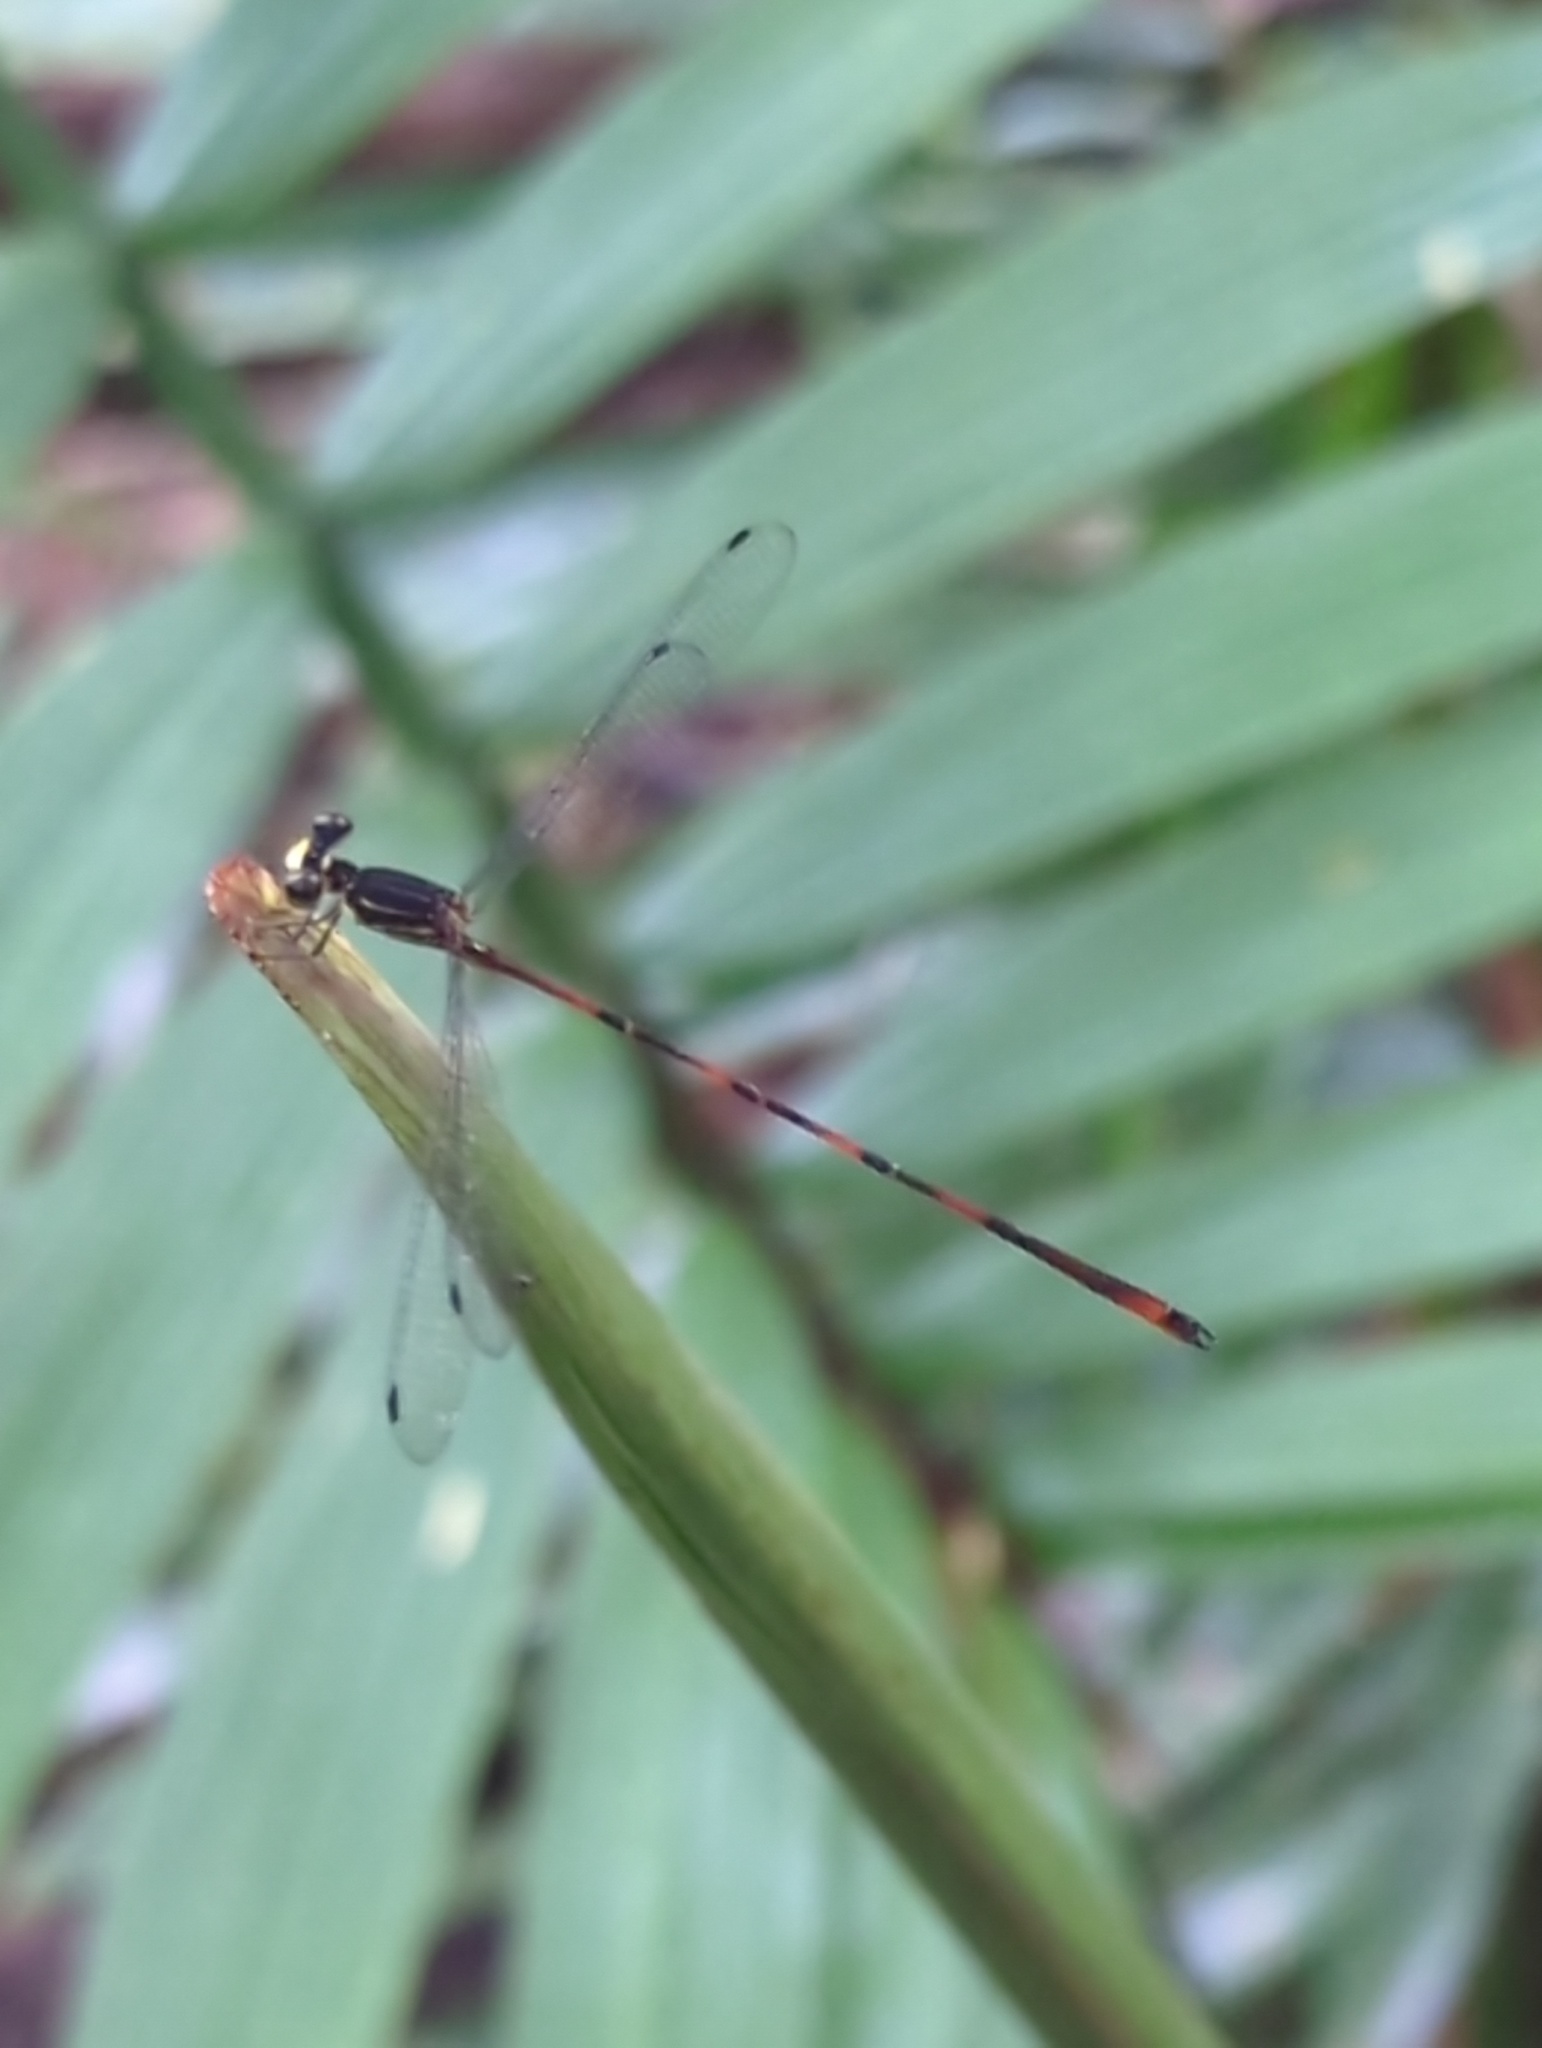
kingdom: Animalia
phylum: Arthropoda
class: Insecta
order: Odonata
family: Heteragrionidae
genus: Heteragrion
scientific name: Heteragrion mitratum
